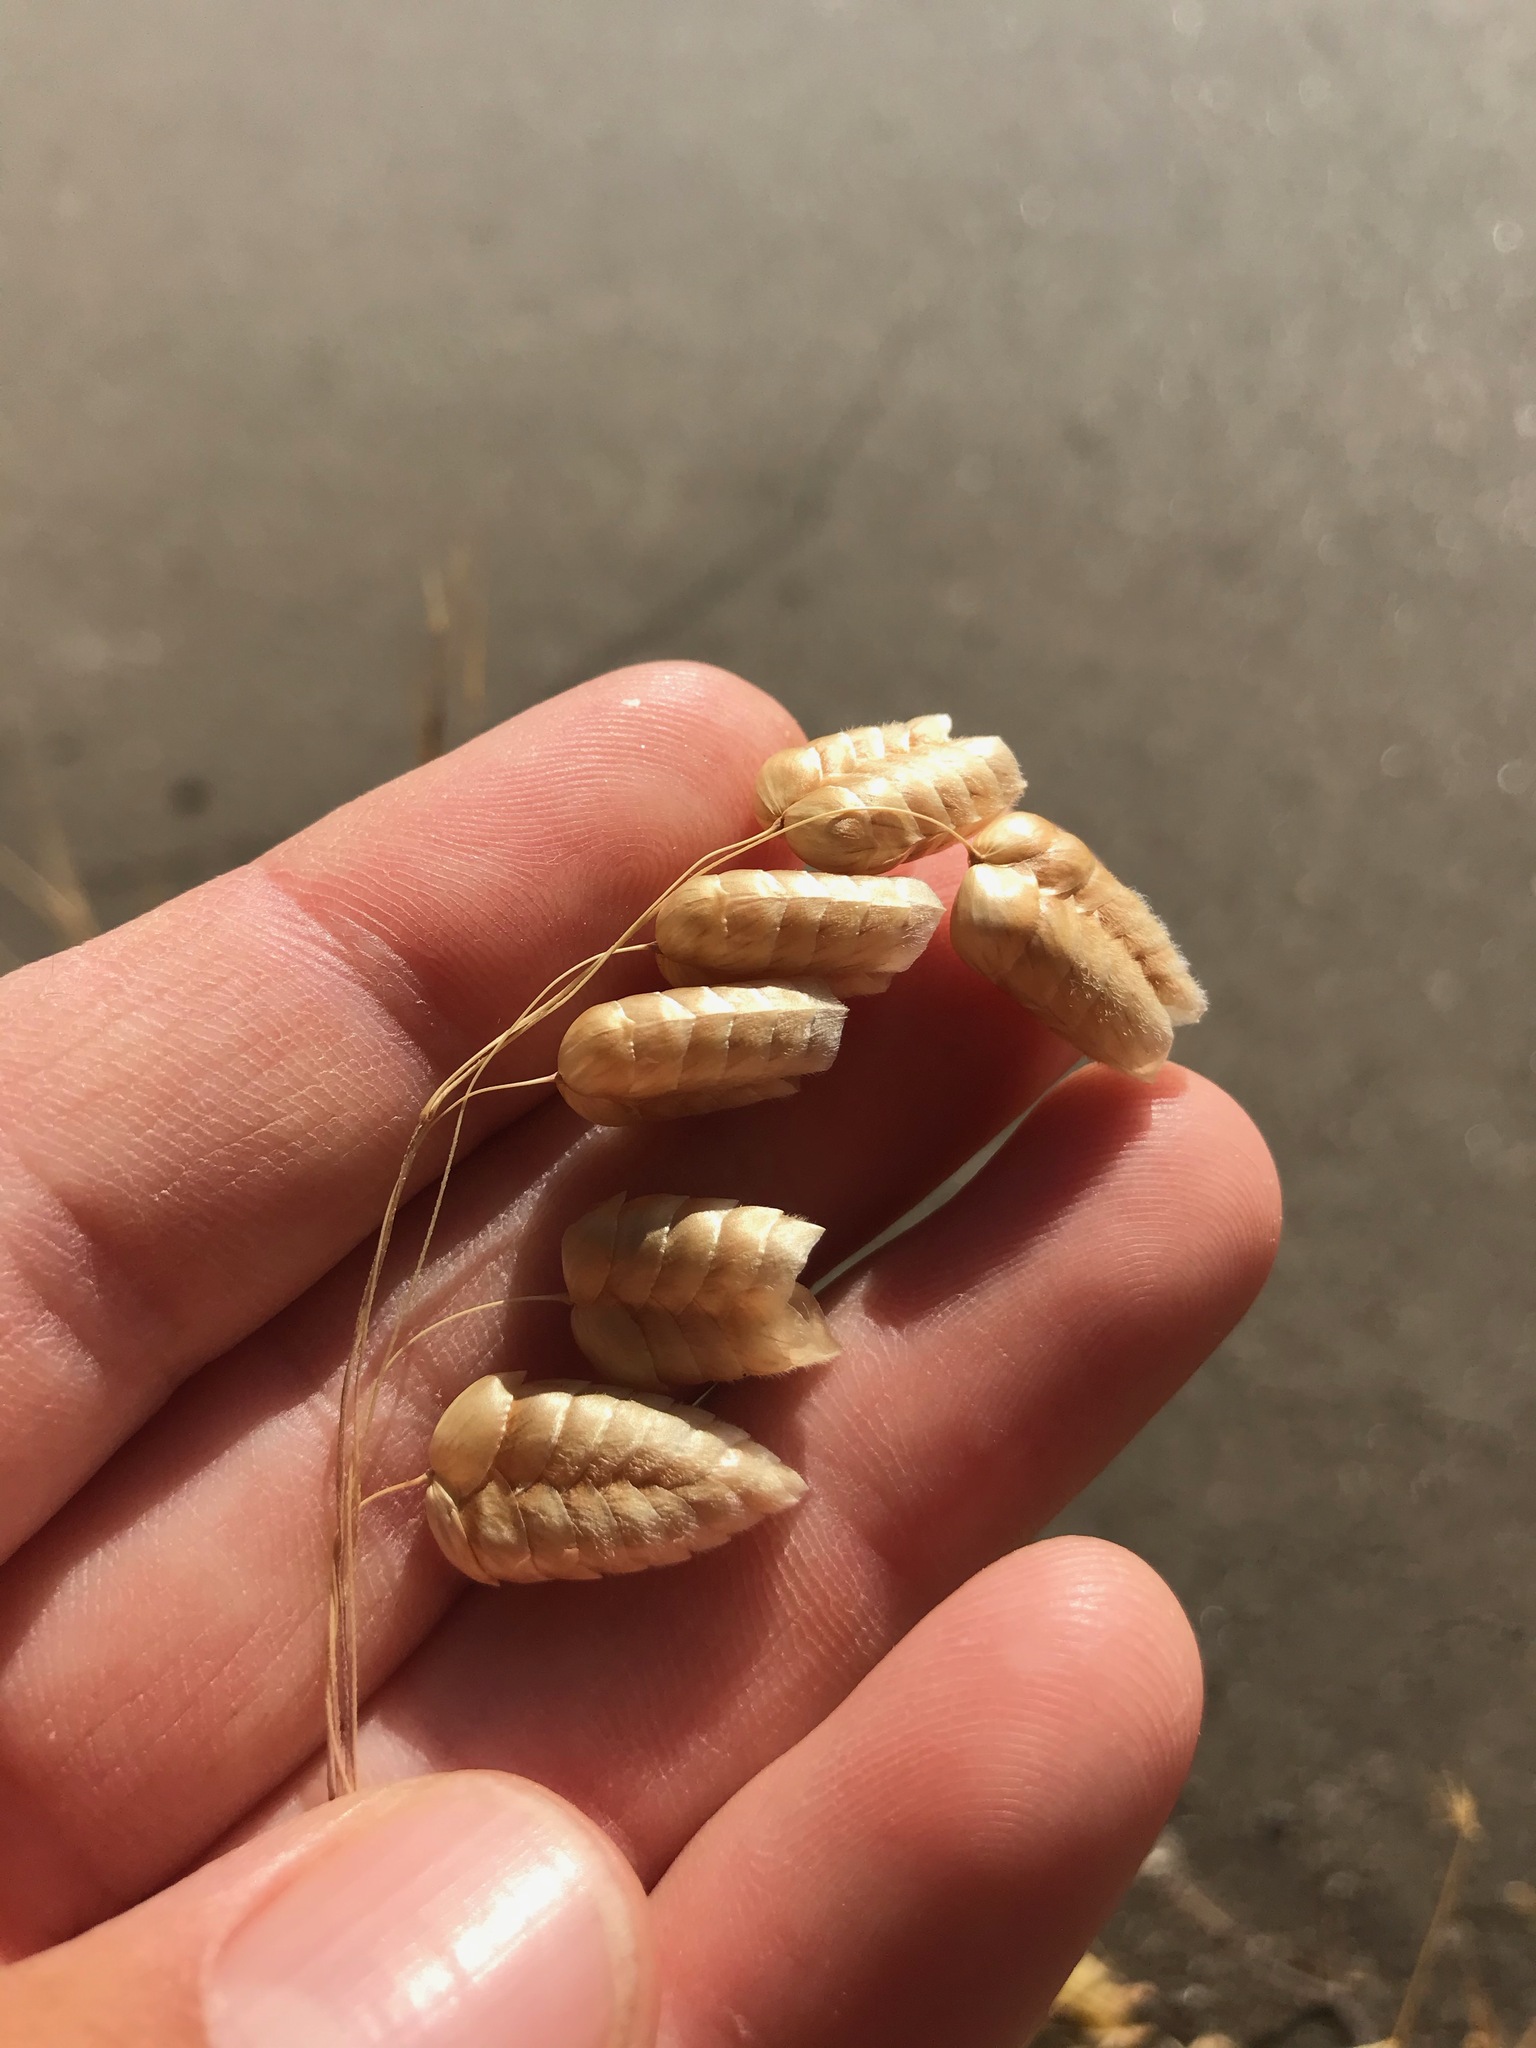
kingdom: Plantae
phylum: Tracheophyta
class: Liliopsida
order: Poales
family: Poaceae
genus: Briza
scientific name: Briza maxima
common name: Big quakinggrass
